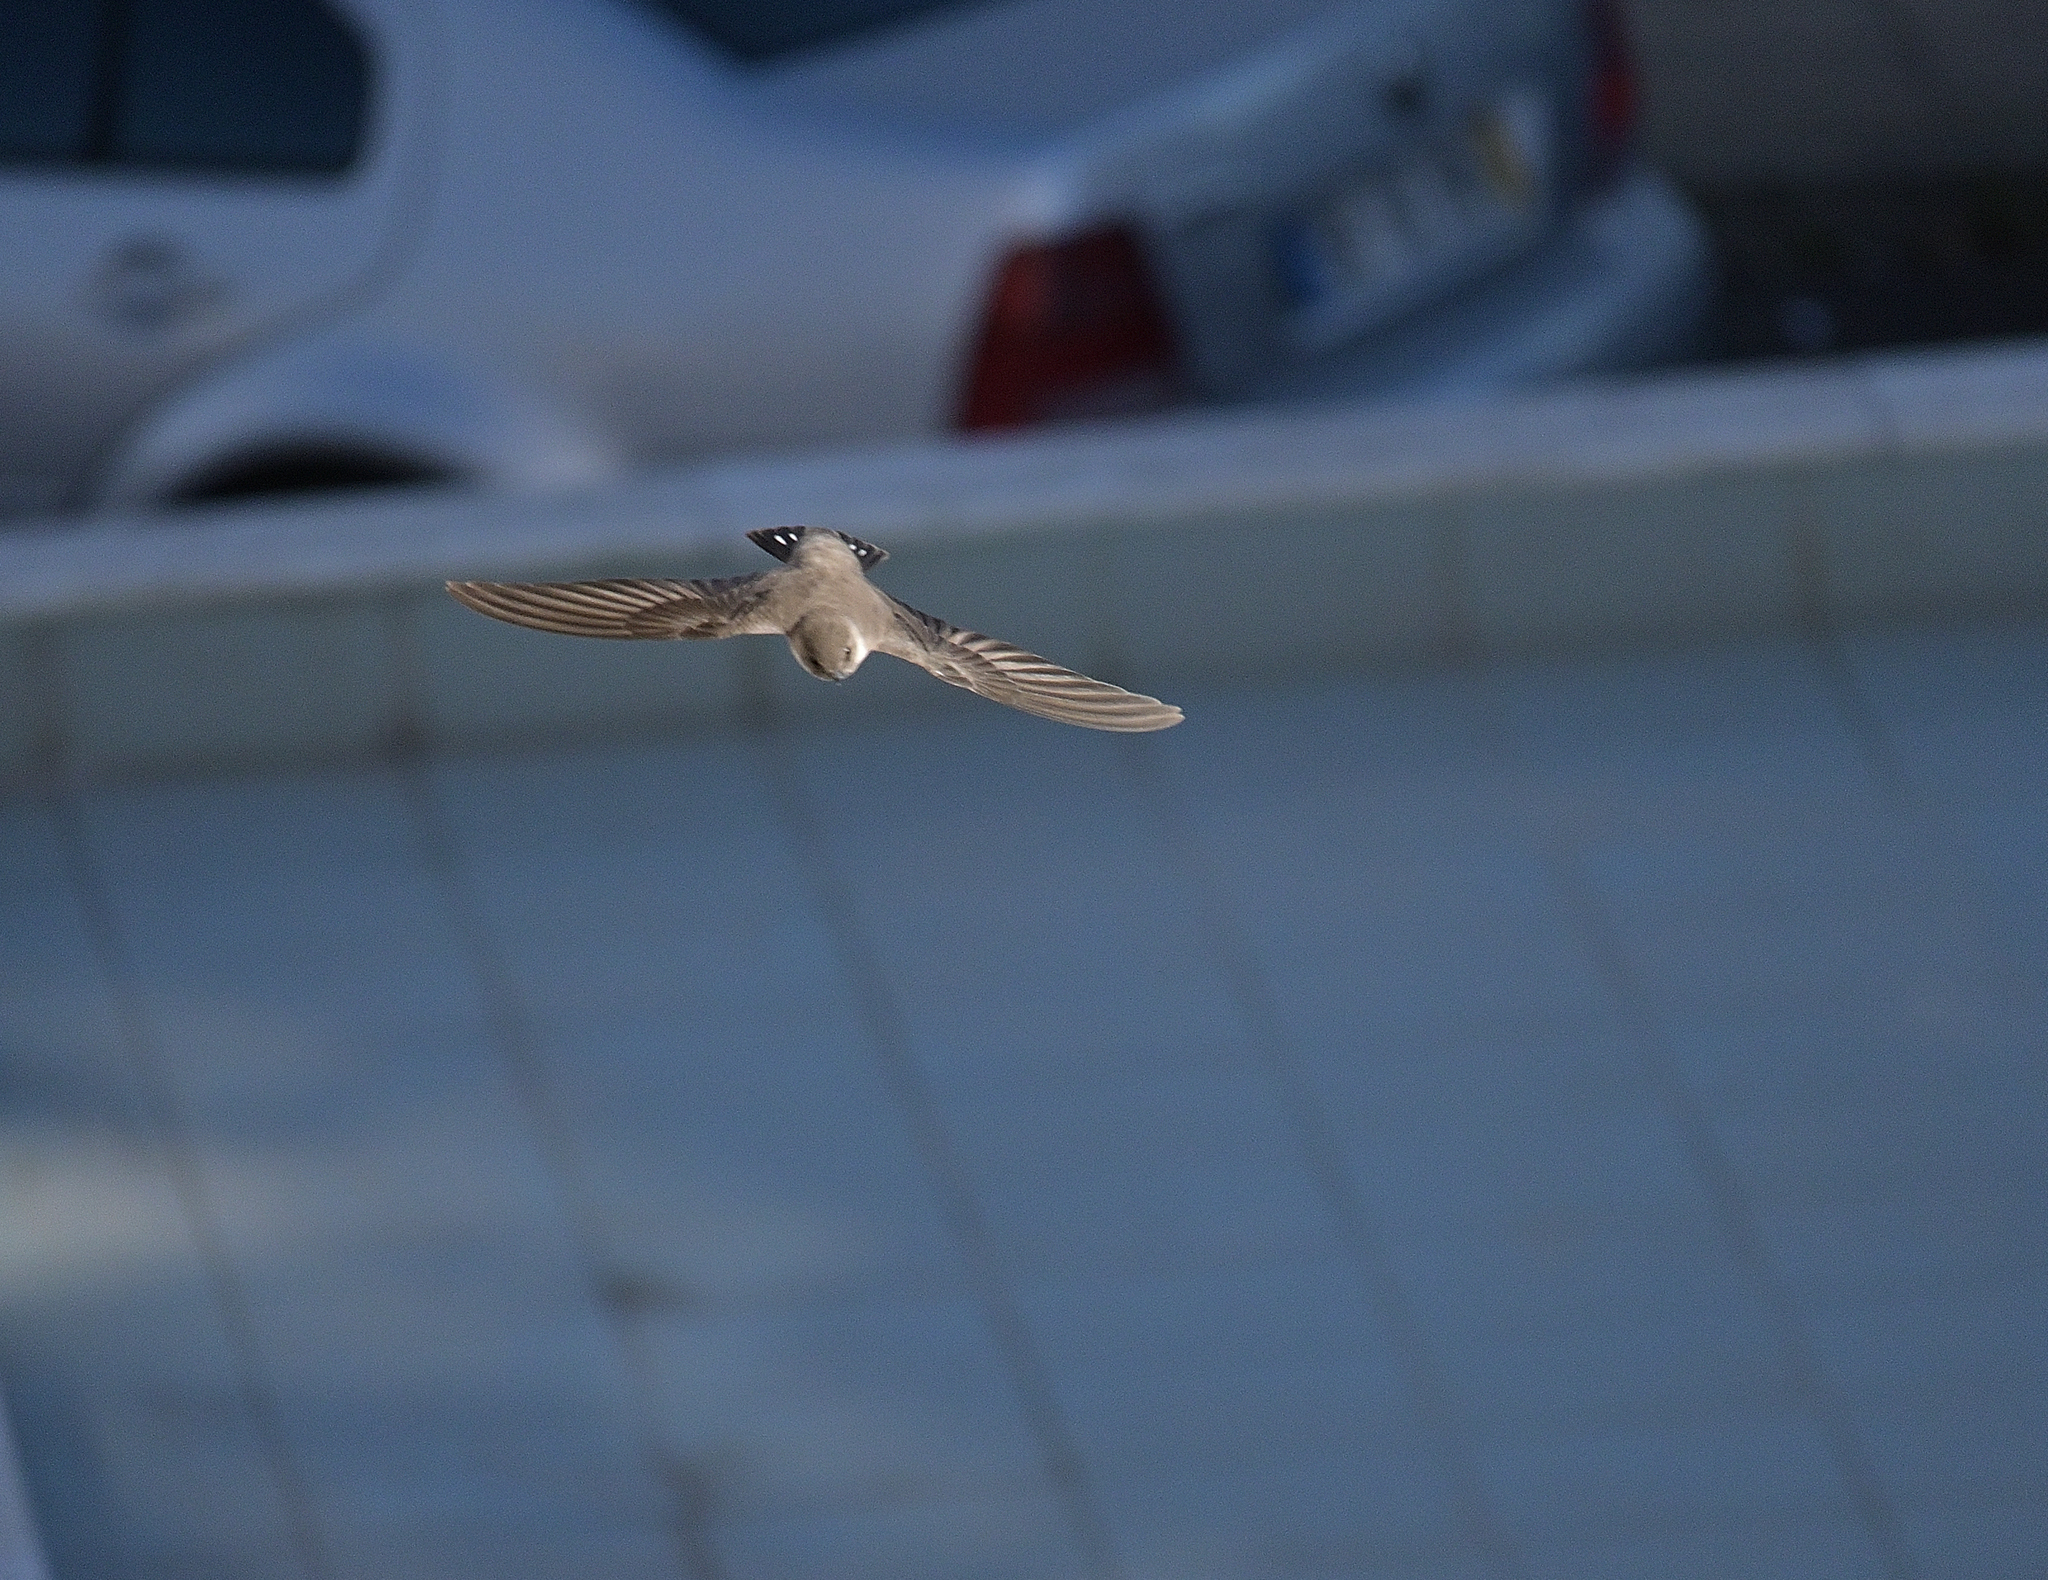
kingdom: Animalia
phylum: Chordata
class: Aves
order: Passeriformes
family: Hirundinidae
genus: Ptyonoprogne
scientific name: Ptyonoprogne rupestris
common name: Eurasian crag martin
